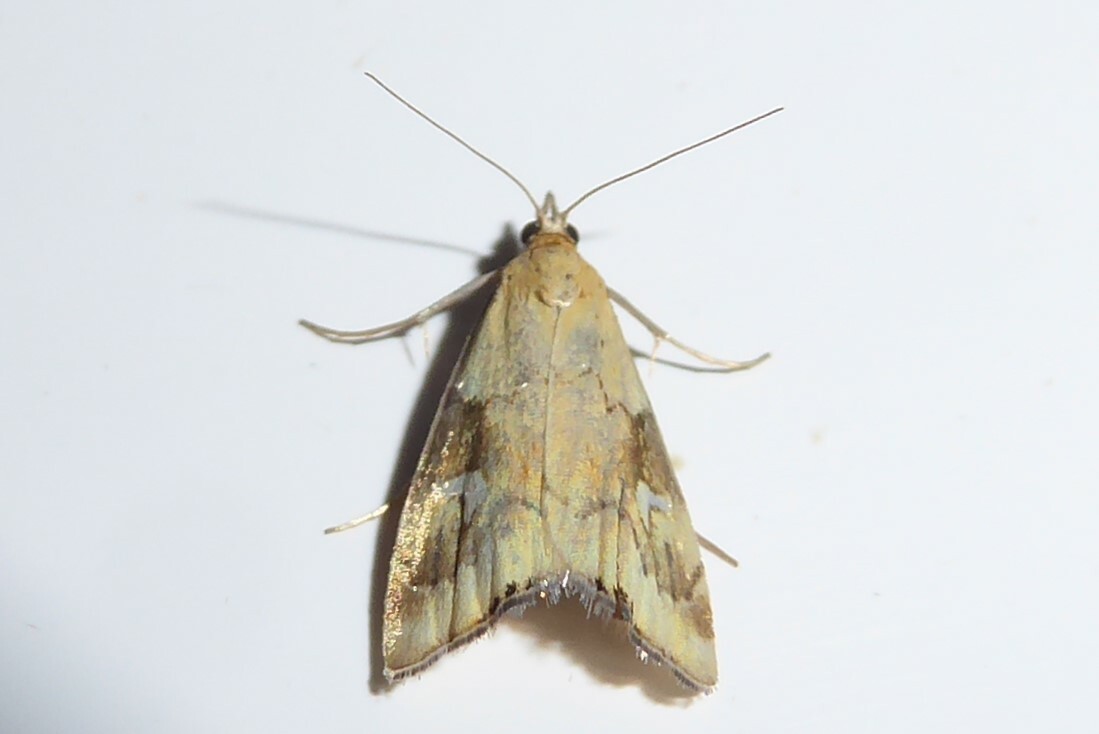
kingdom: Animalia
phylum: Arthropoda
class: Insecta
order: Lepidoptera
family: Crambidae
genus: Glaucocharis
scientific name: Glaucocharis lepidella
